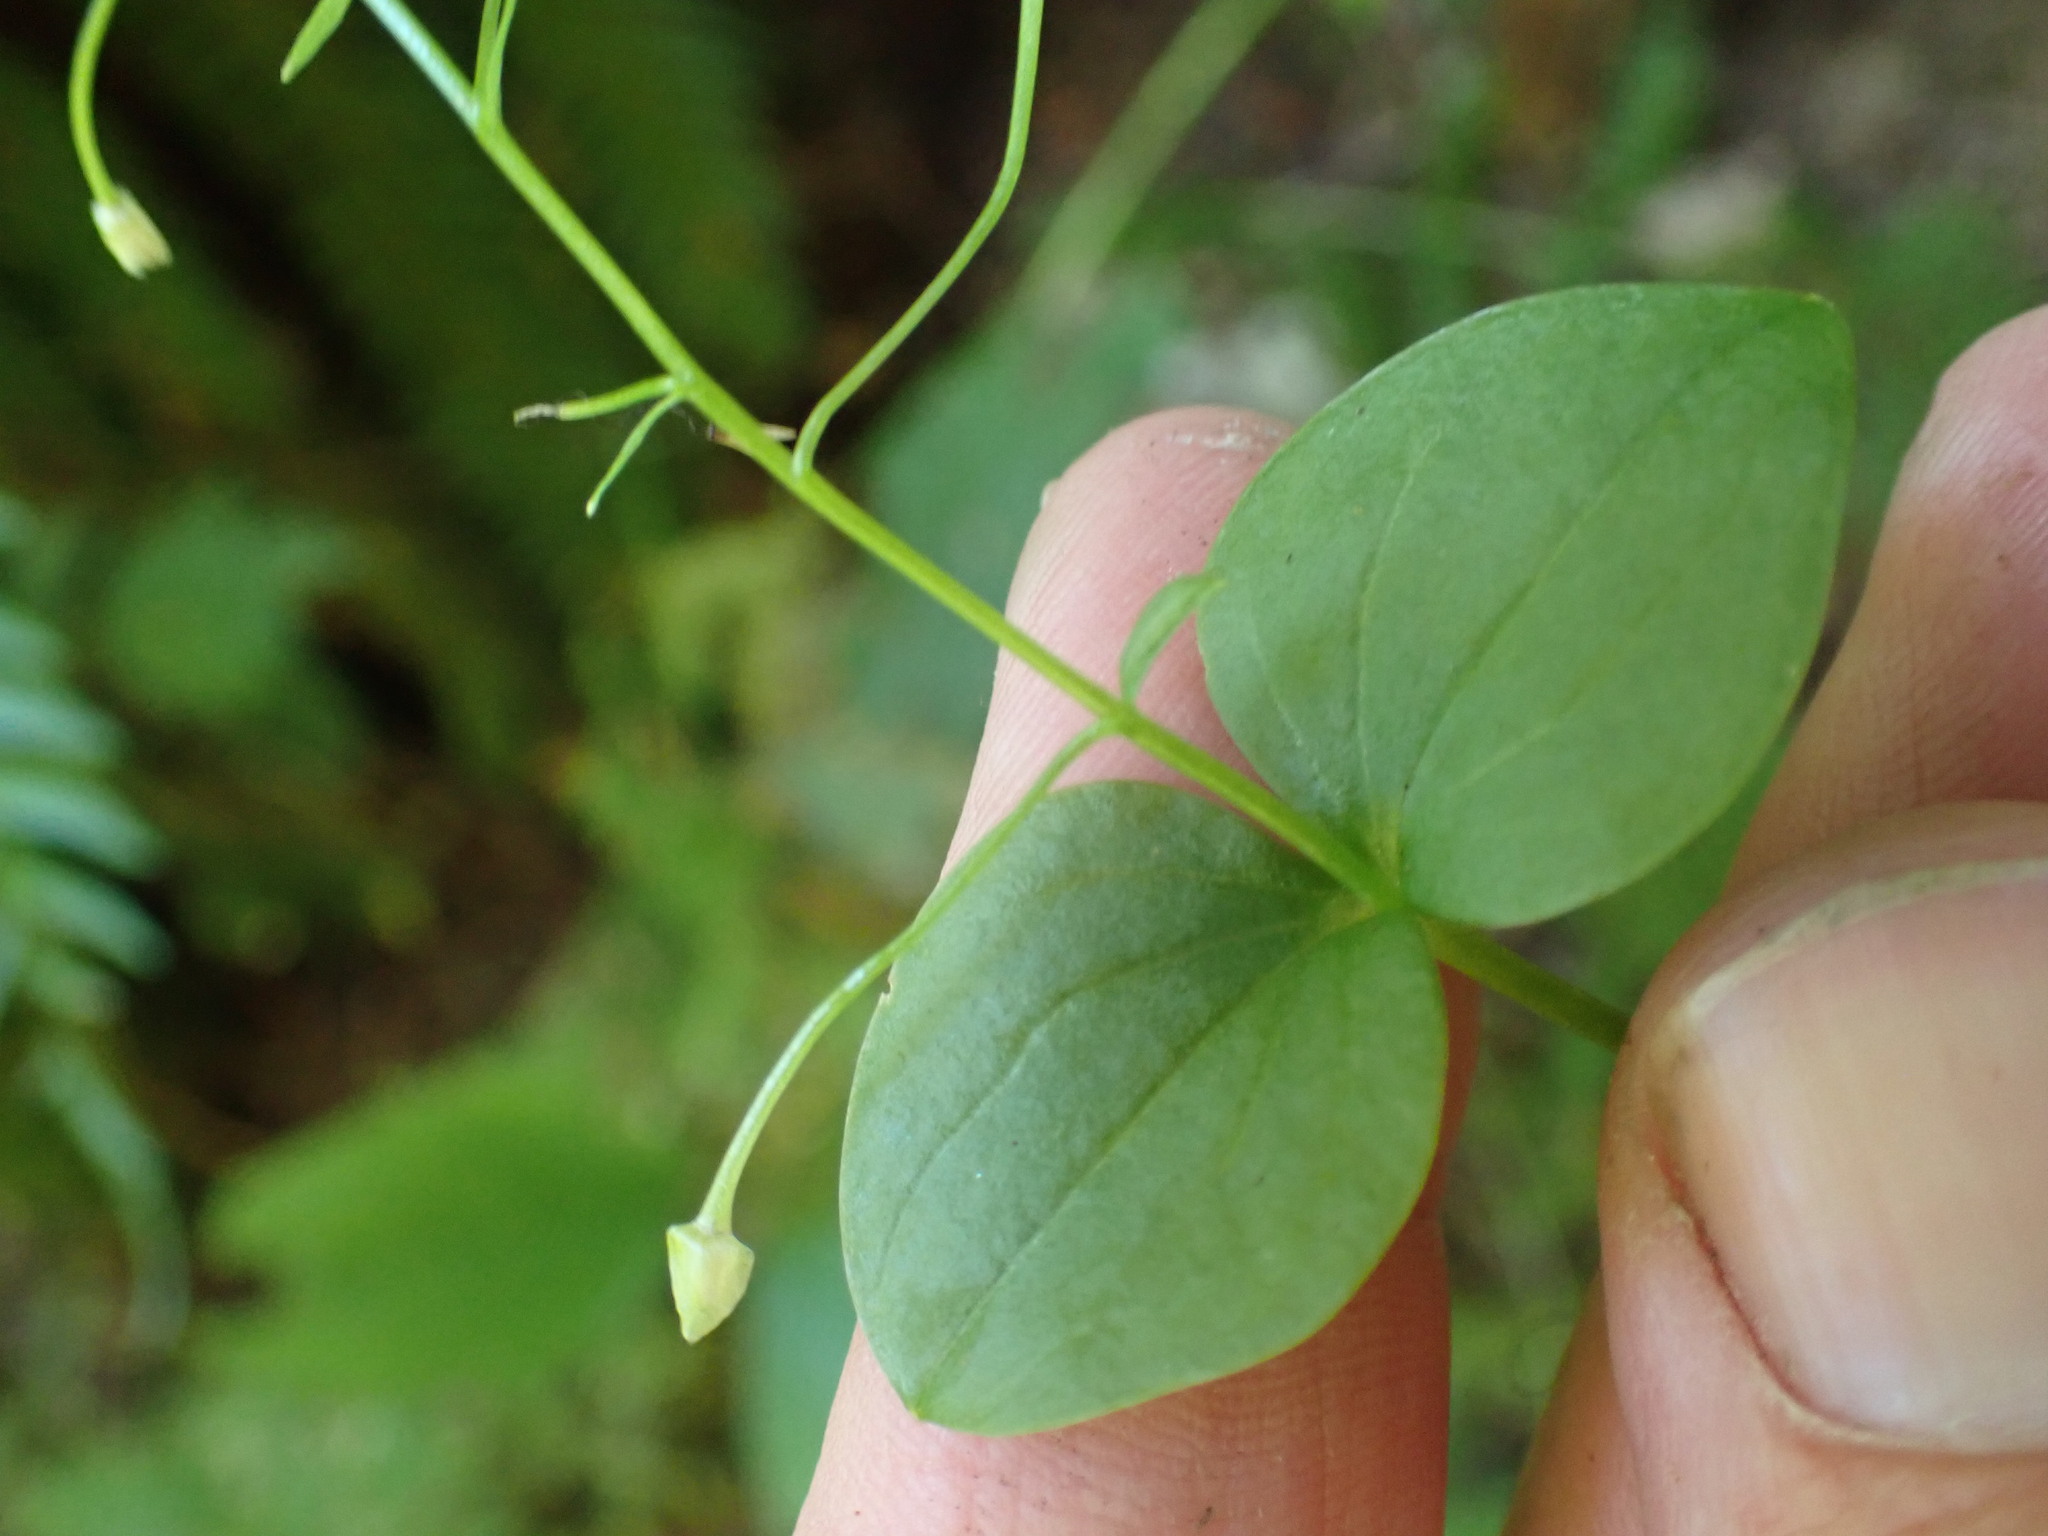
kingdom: Plantae
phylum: Tracheophyta
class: Magnoliopsida
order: Caryophyllales
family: Montiaceae
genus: Claytonia
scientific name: Claytonia sibirica
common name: Pink purslane
